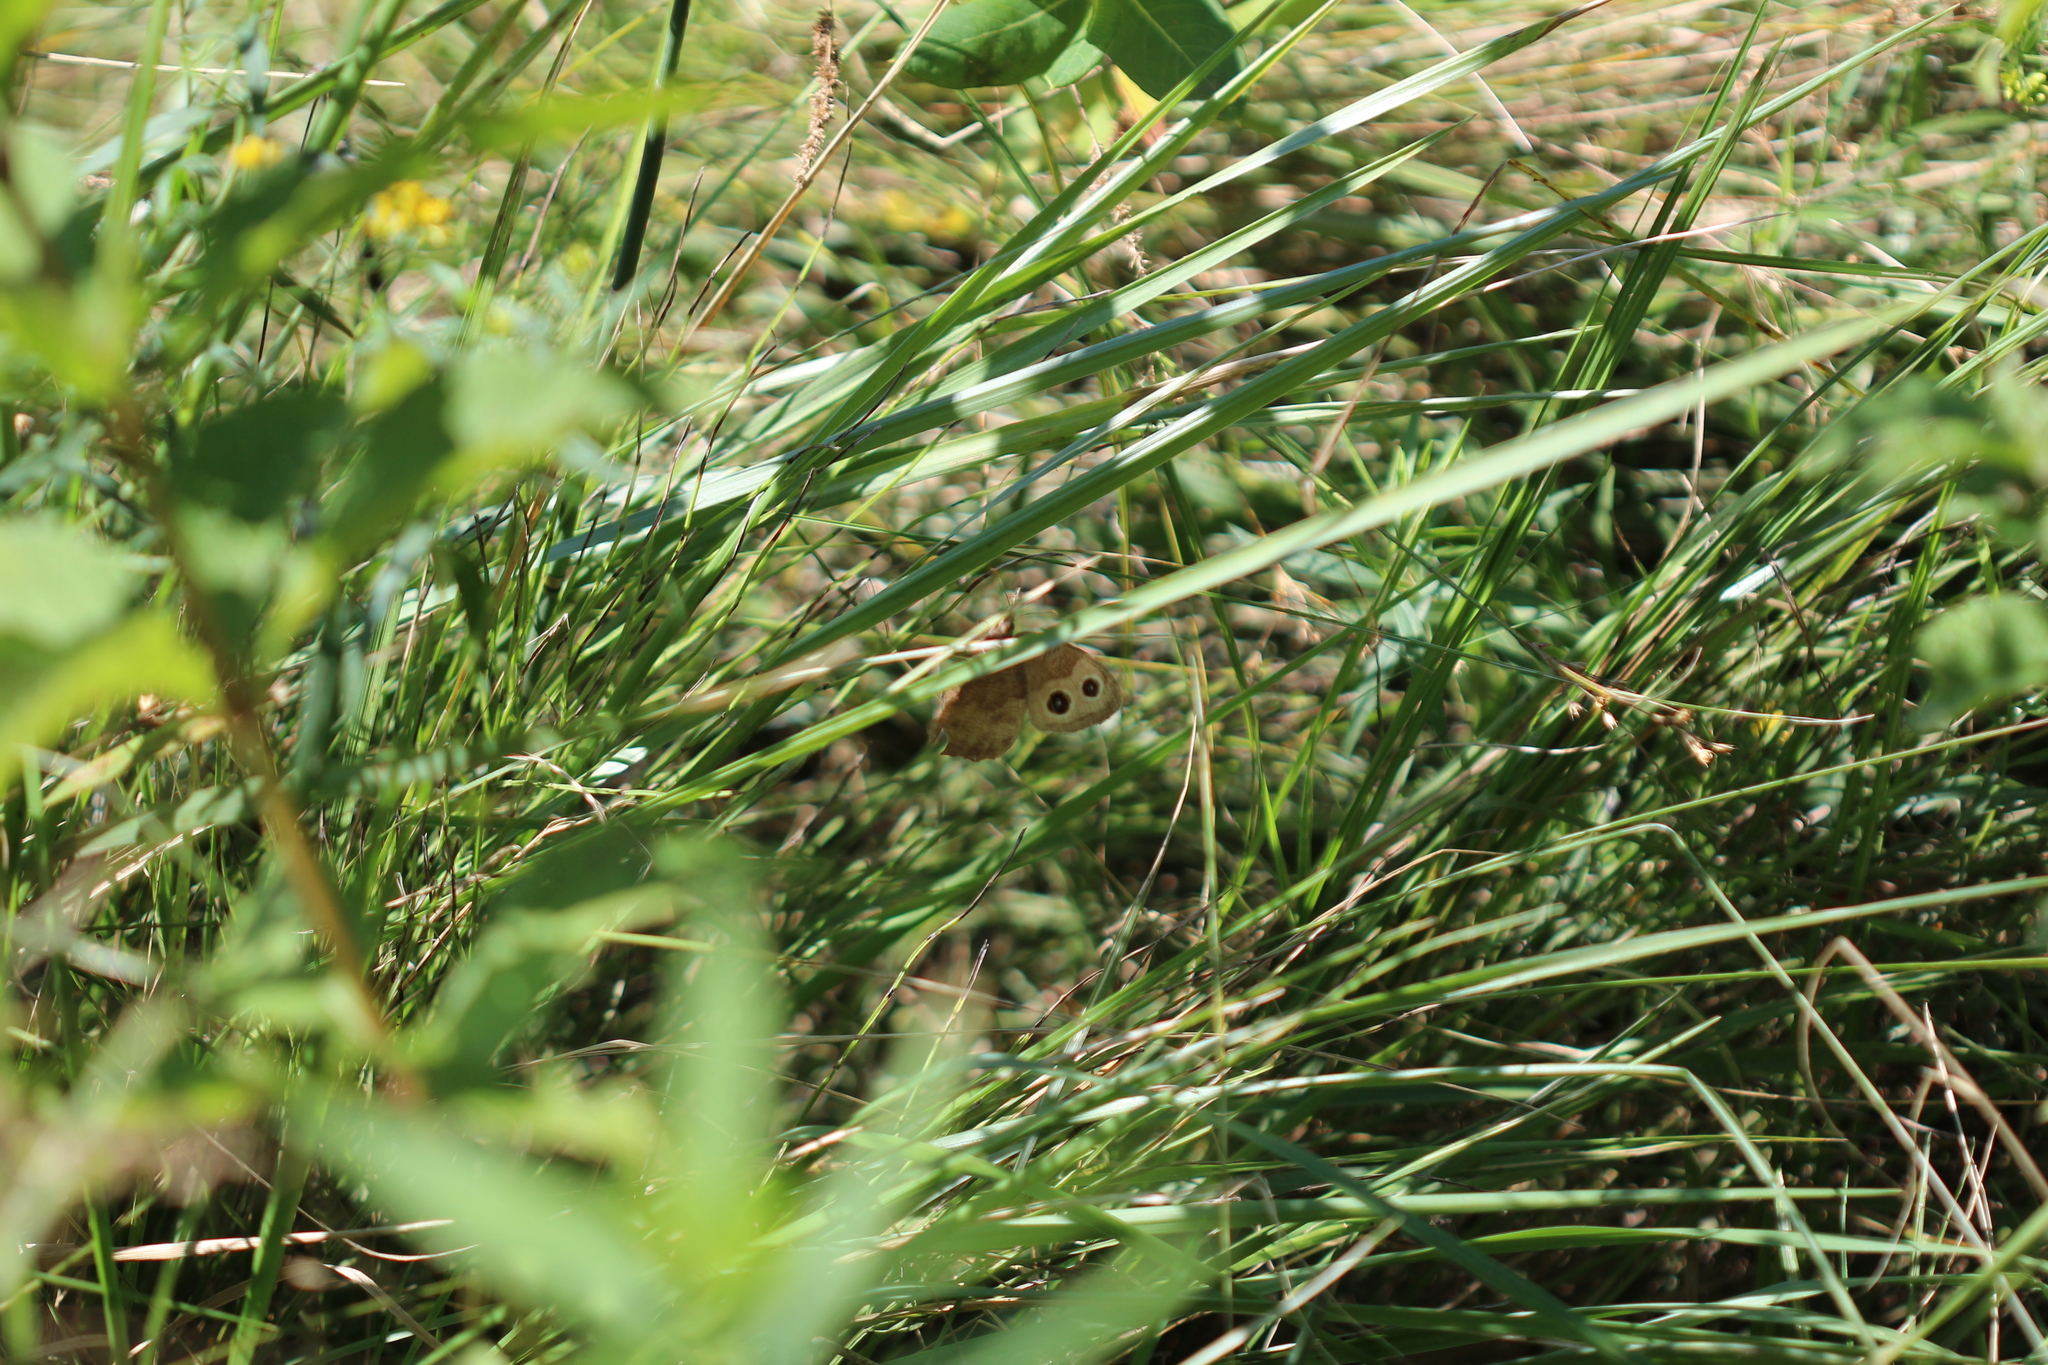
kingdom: Animalia
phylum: Arthropoda
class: Insecta
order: Lepidoptera
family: Nymphalidae
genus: Cercyonis
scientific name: Cercyonis pegala
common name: Common wood-nymph
